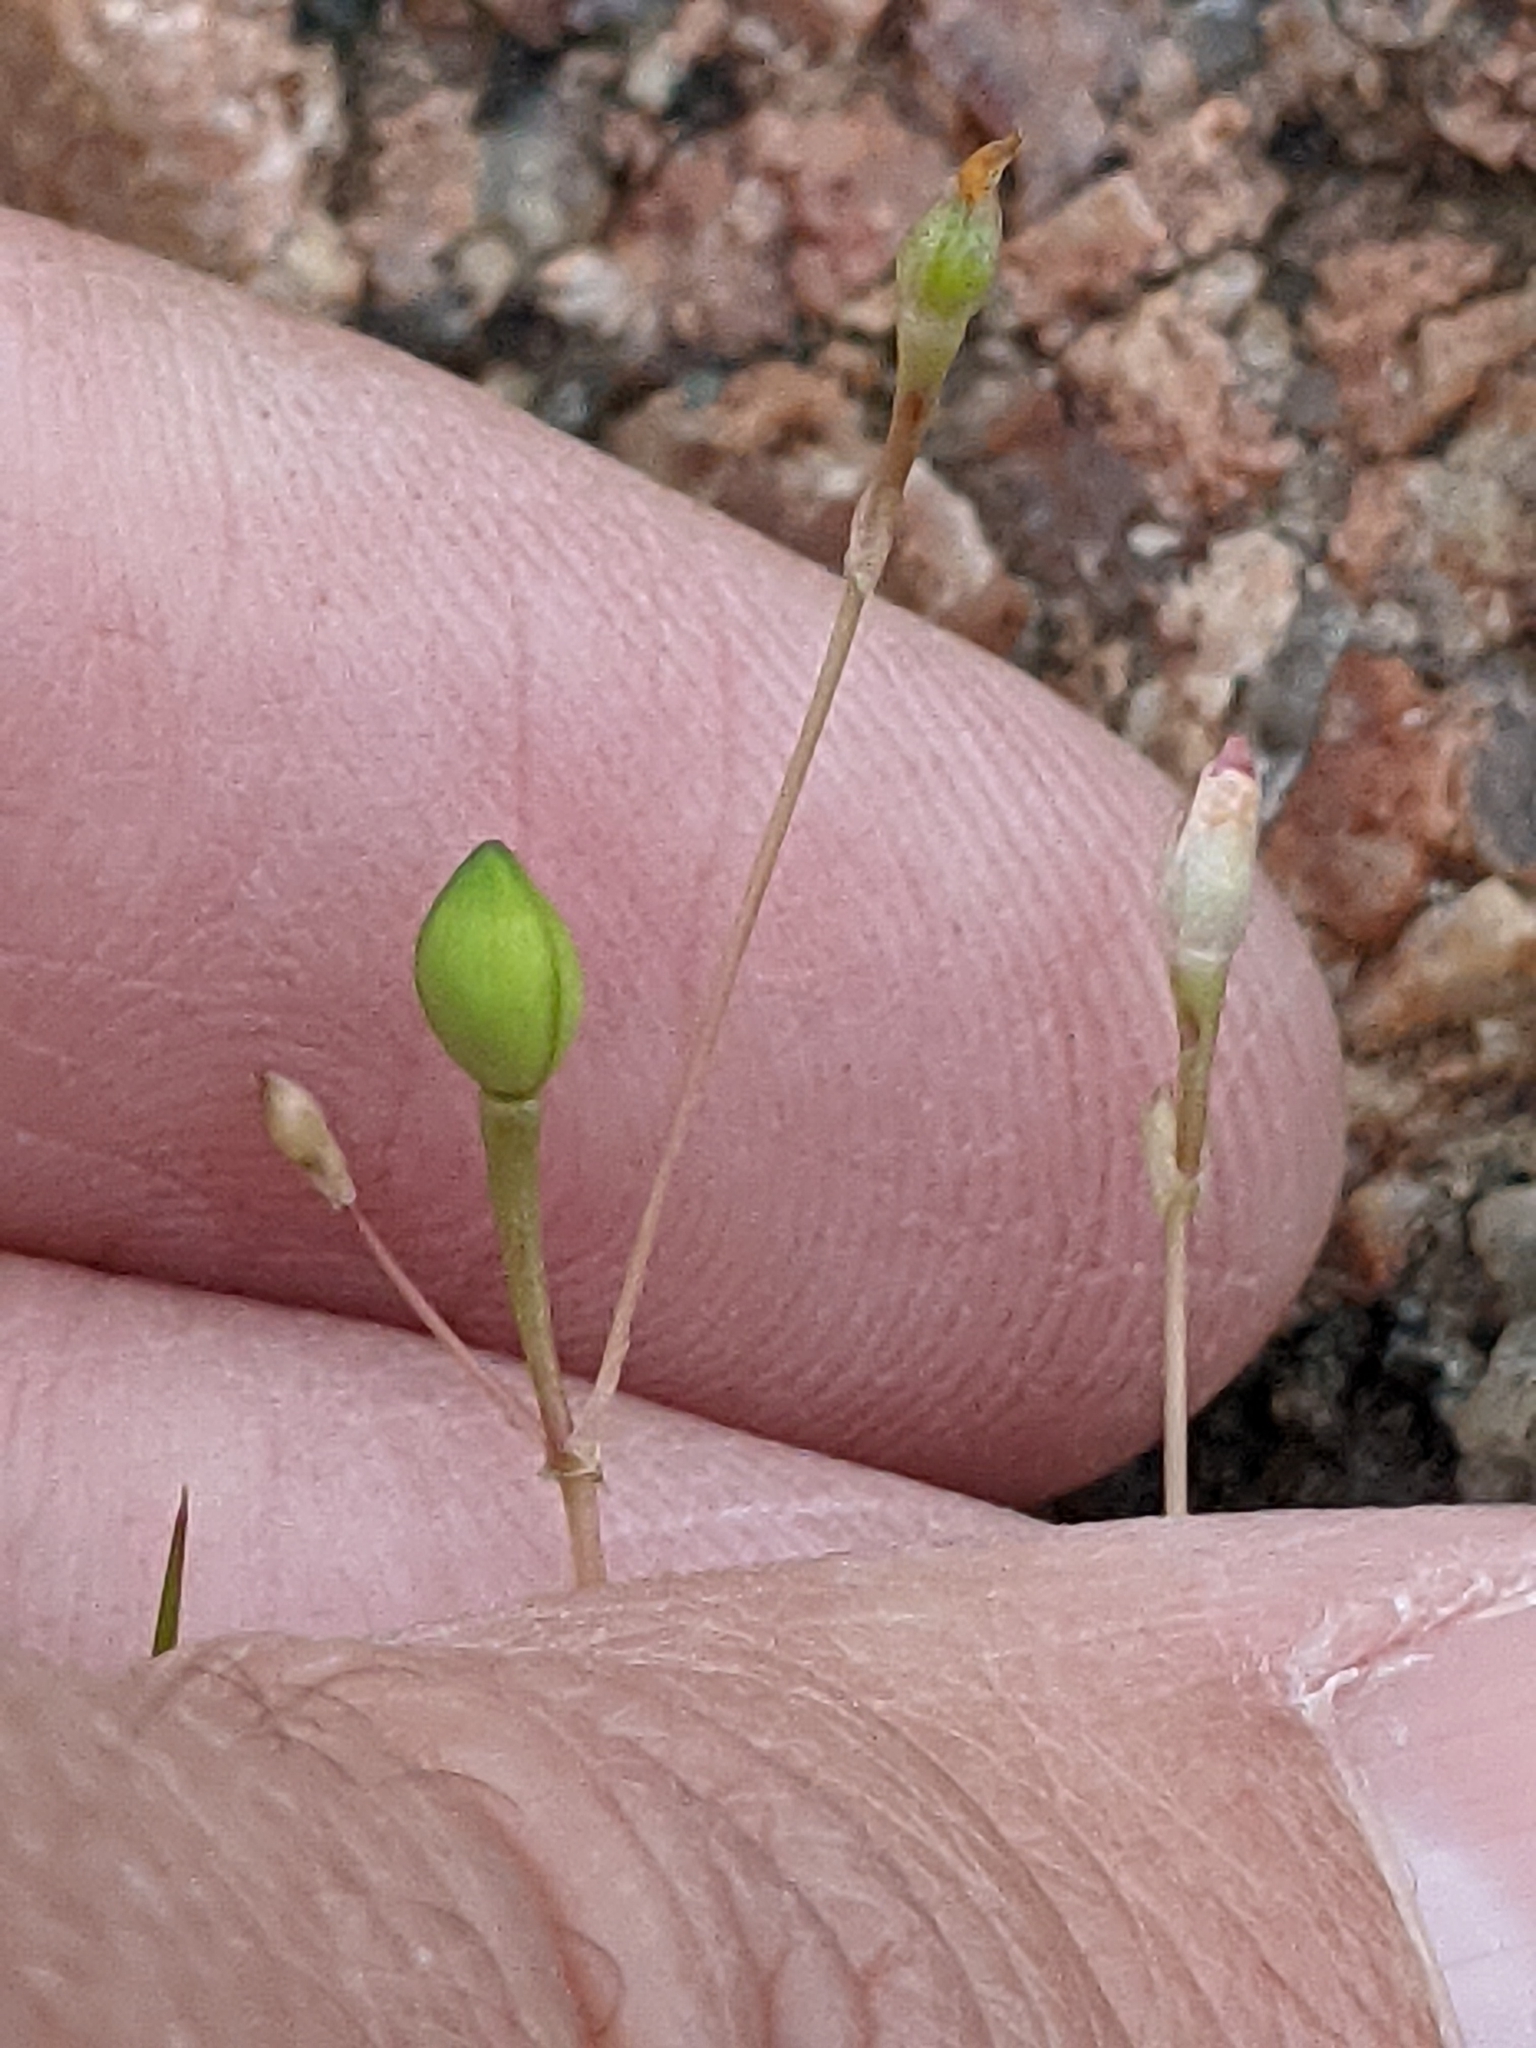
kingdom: Plantae
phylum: Tracheophyta
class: Magnoliopsida
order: Caryophyllales
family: Montiaceae
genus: Phemeranthus
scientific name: Phemeranthus parviflorus
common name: Sunbright
